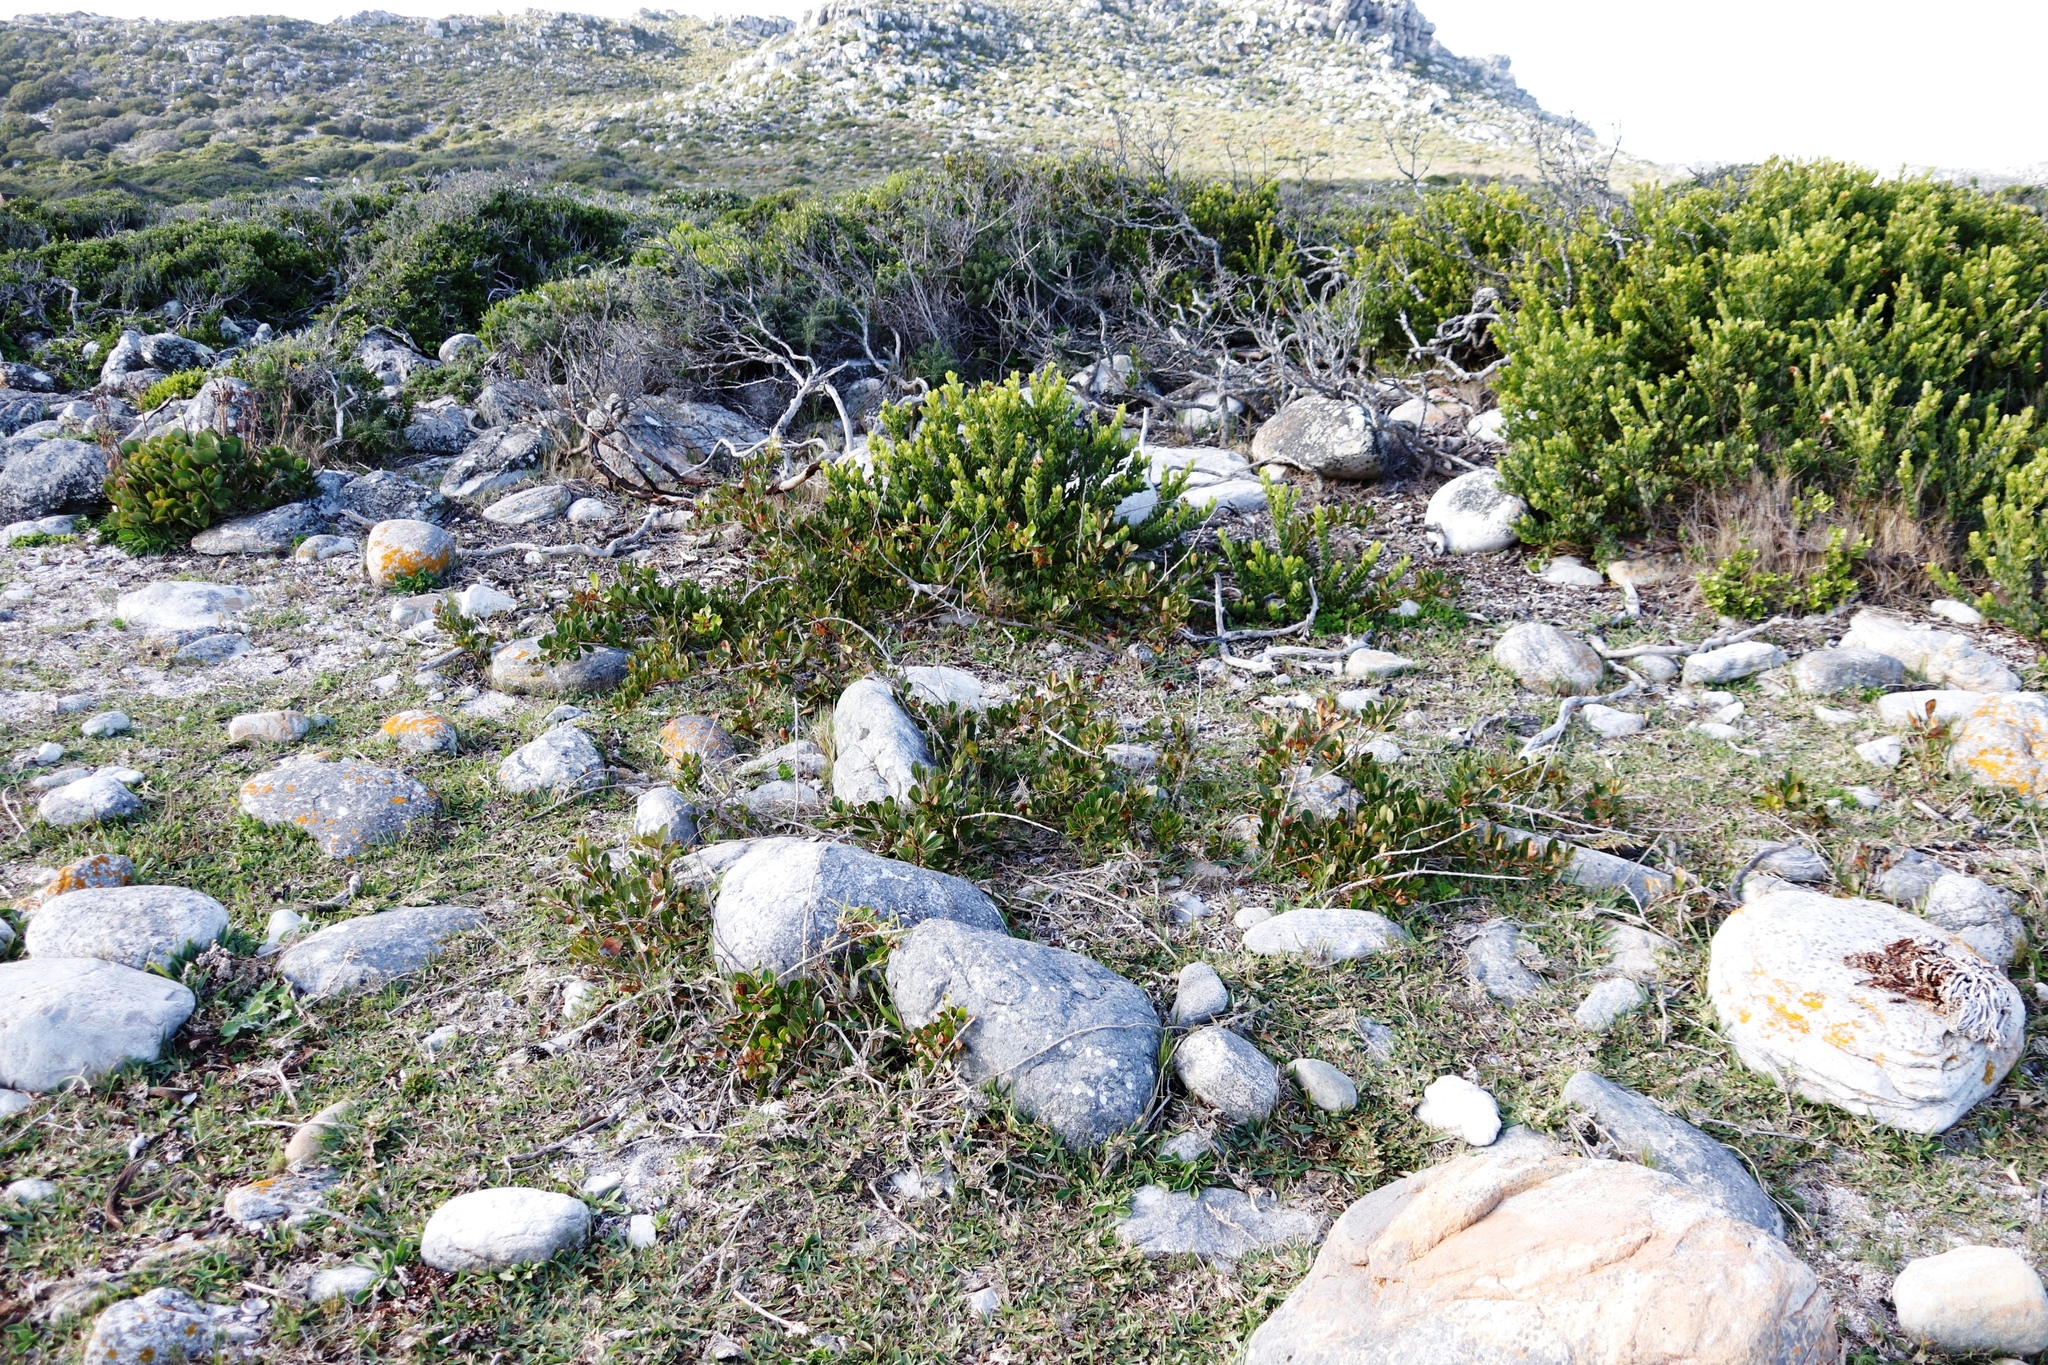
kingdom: Plantae
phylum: Tracheophyta
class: Magnoliopsida
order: Sapindales
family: Anacardiaceae
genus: Searsia
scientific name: Searsia laevigata
